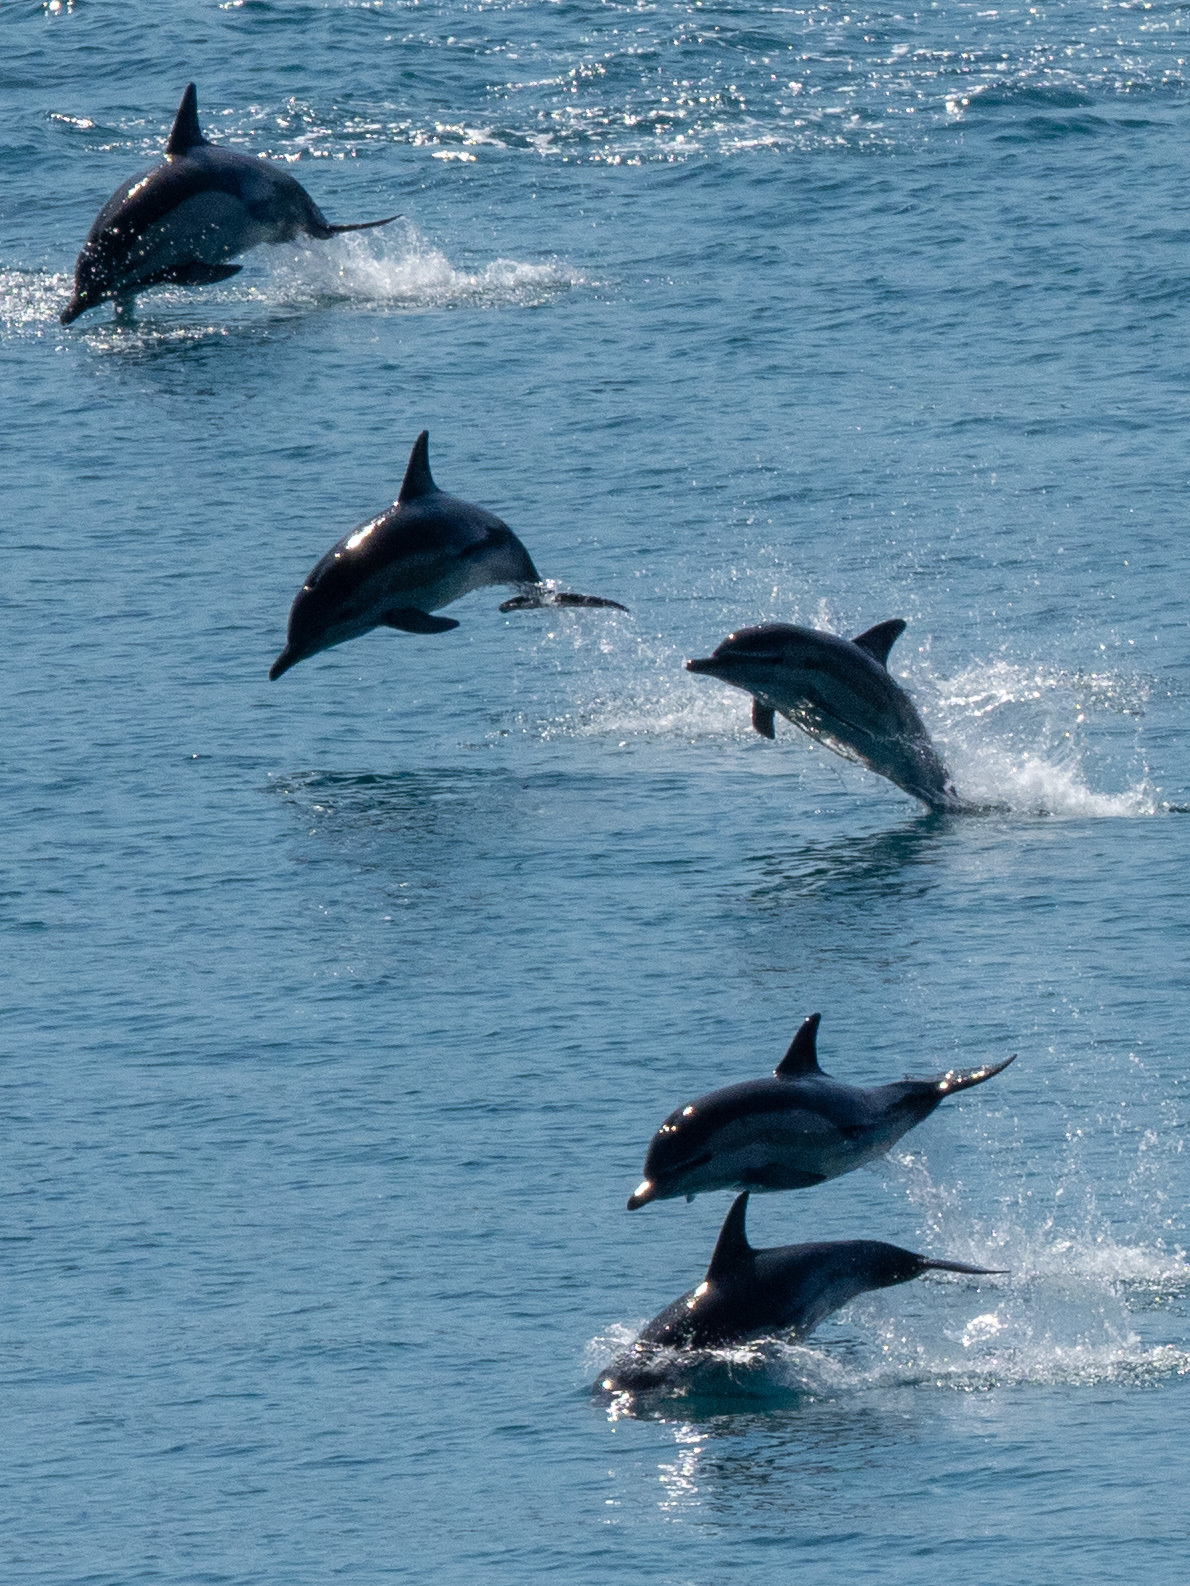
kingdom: Animalia
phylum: Chordata
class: Mammalia
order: Cetacea
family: Delphinidae
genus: Delphinus
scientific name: Delphinus delphis
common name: Common dolphin
